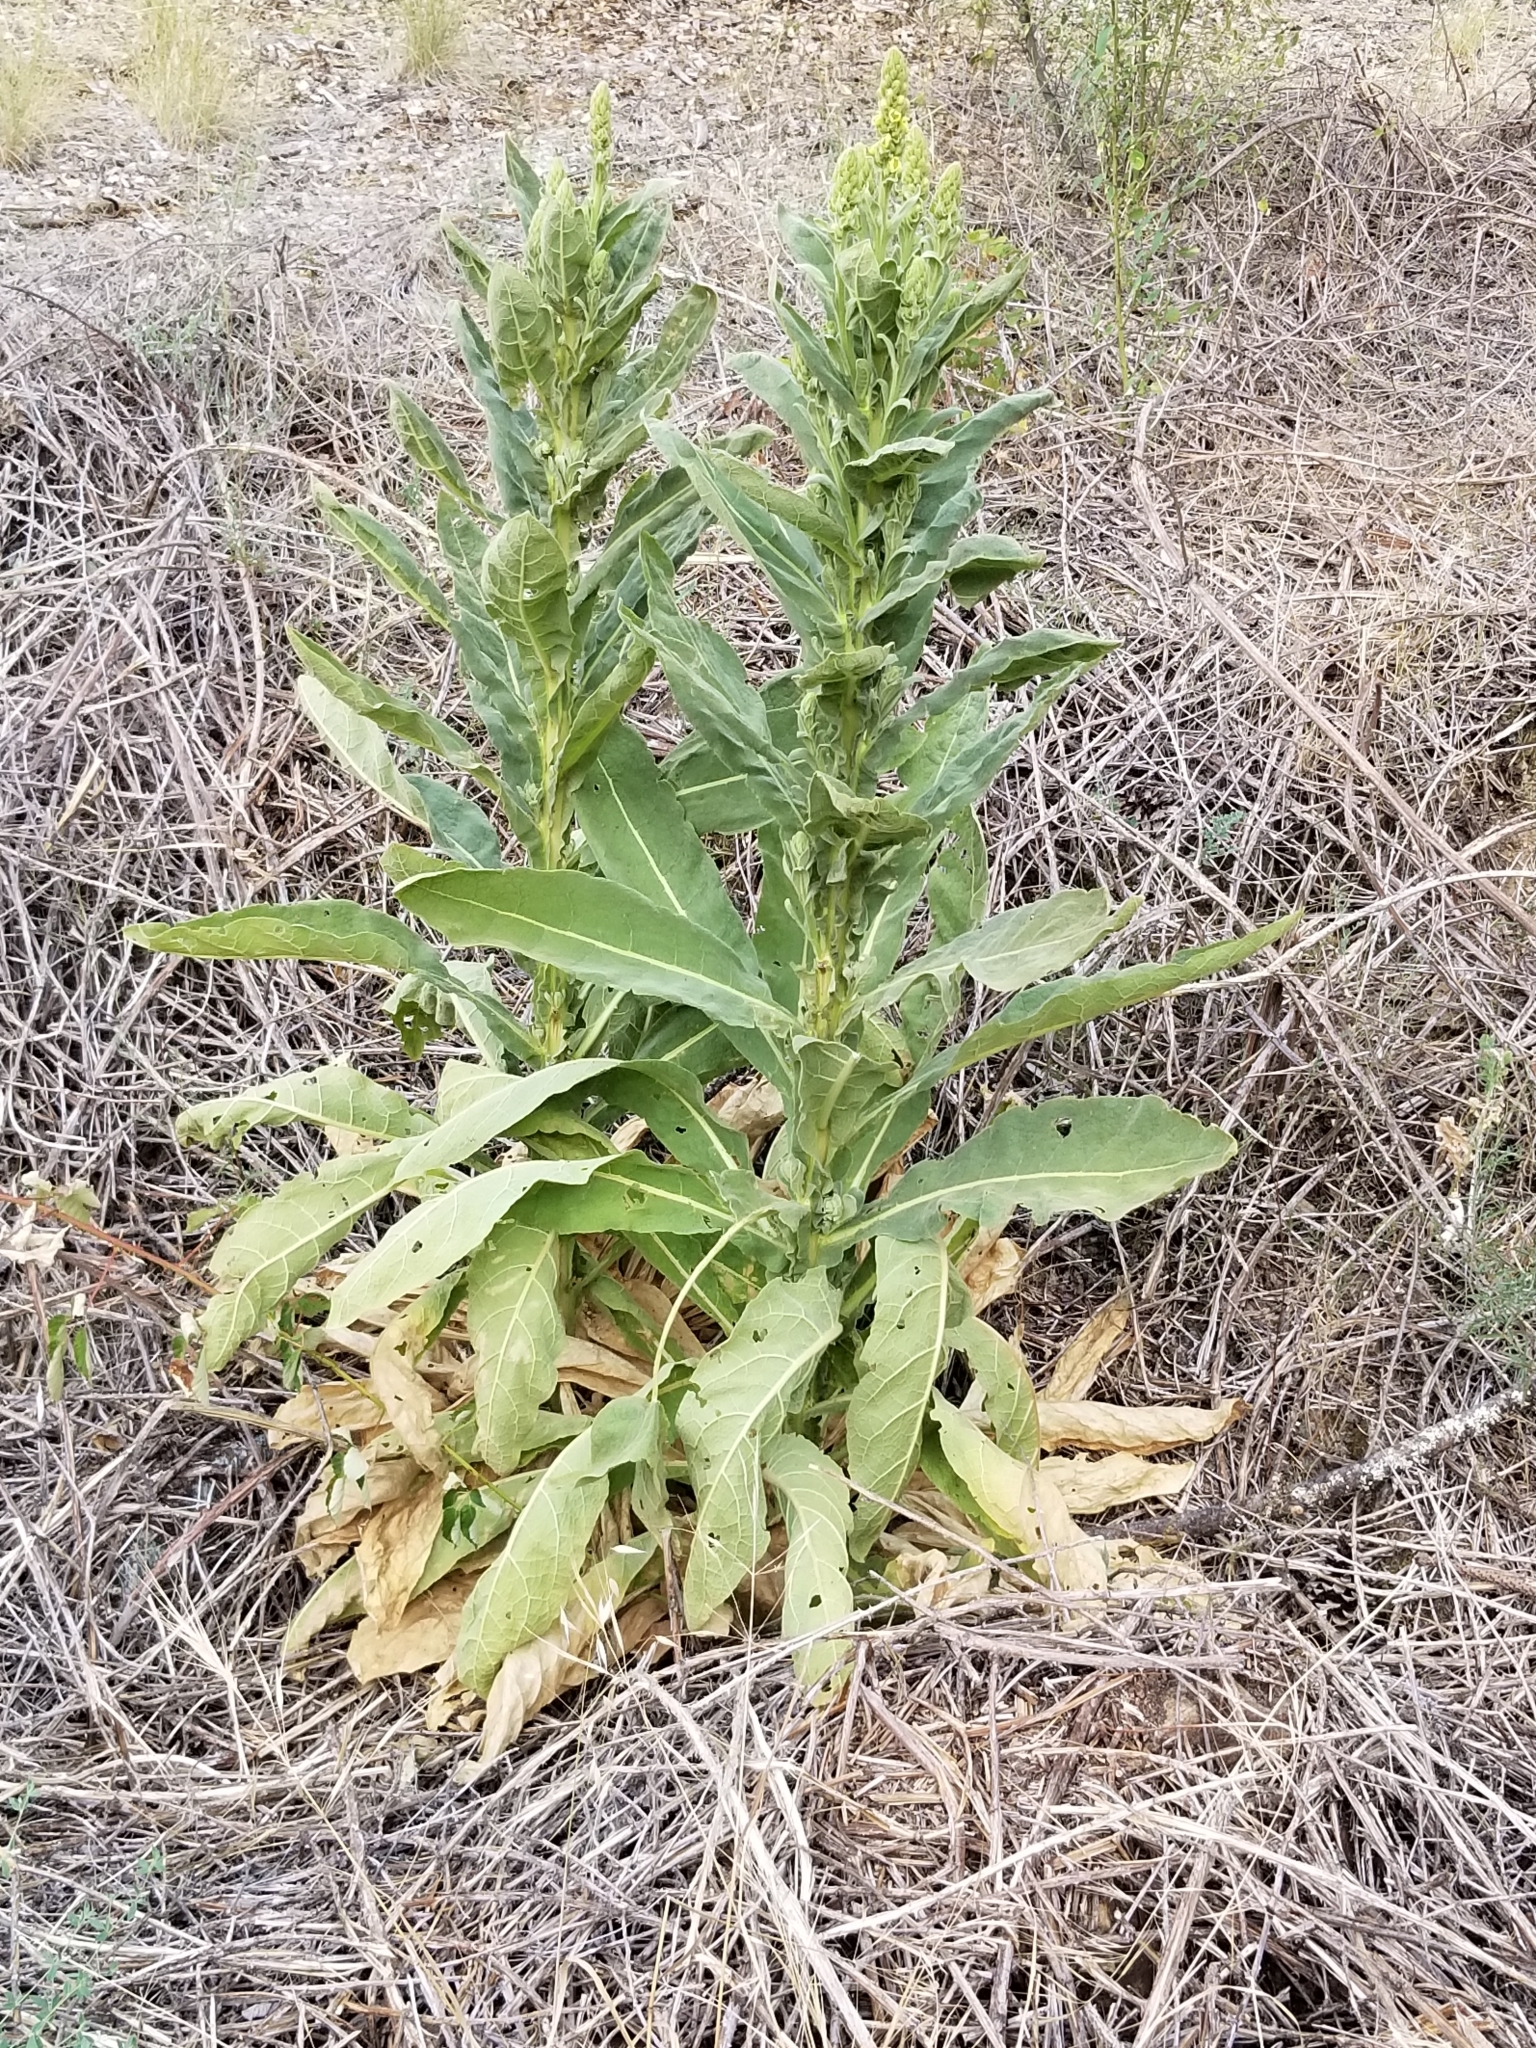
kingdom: Plantae
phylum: Tracheophyta
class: Magnoliopsida
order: Lamiales
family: Scrophulariaceae
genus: Verbascum
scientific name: Verbascum thapsus
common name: Common mullein
